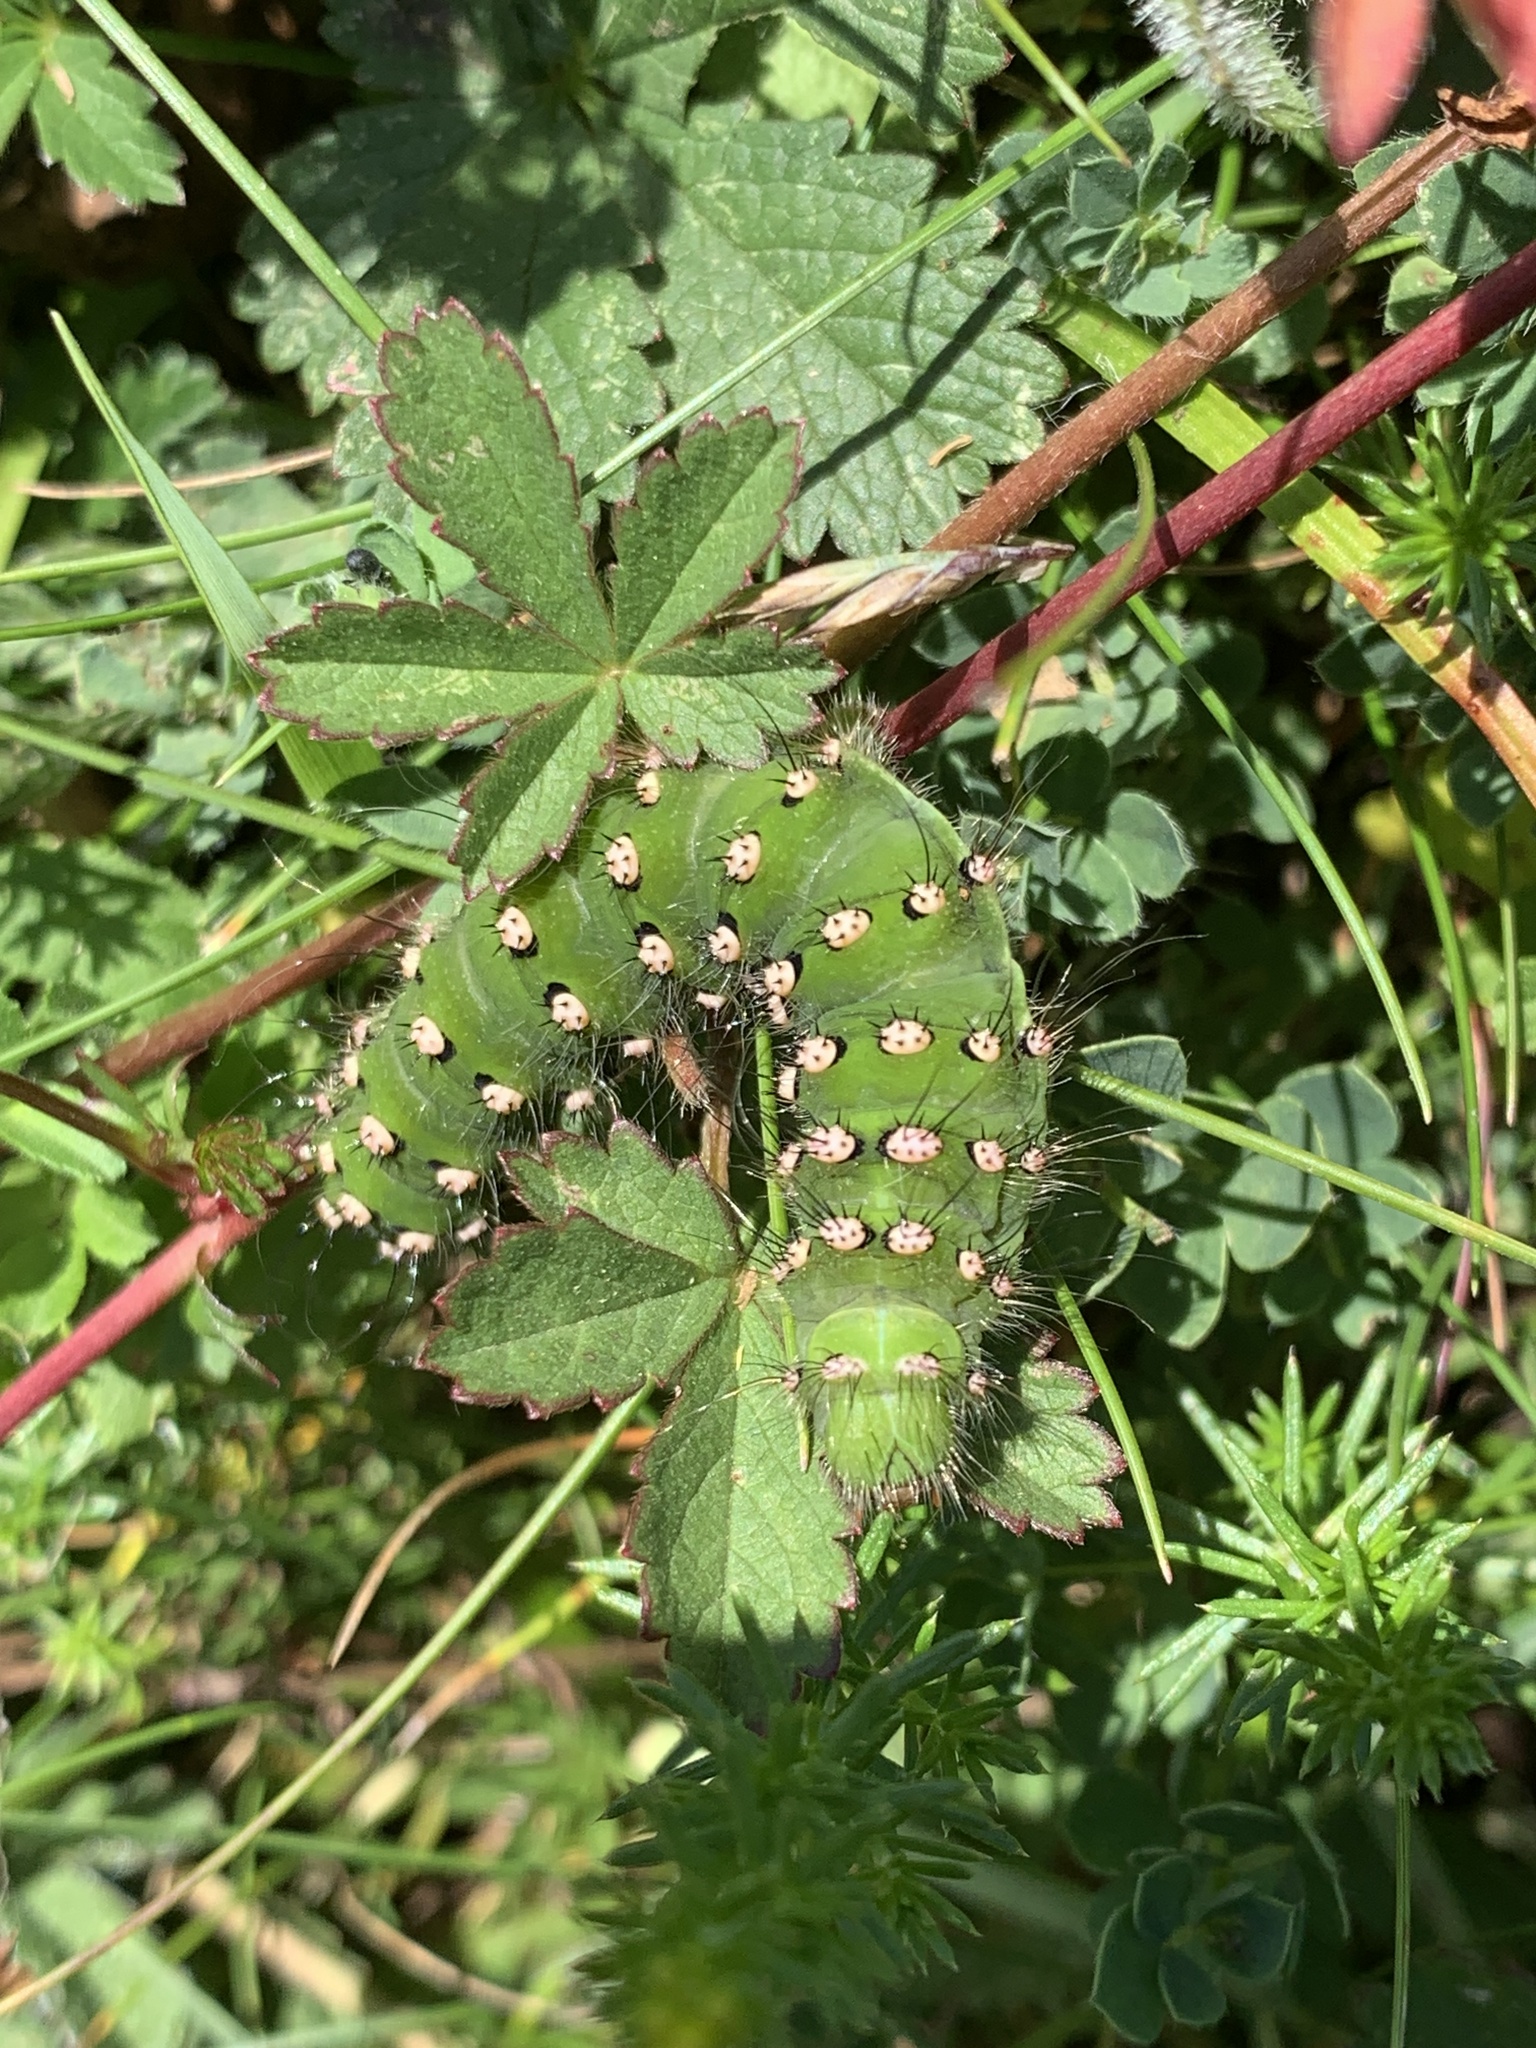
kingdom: Animalia
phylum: Arthropoda
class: Insecta
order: Lepidoptera
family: Saturniidae
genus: Saturnia
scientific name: Saturnia pavonia
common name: Emperor moth
